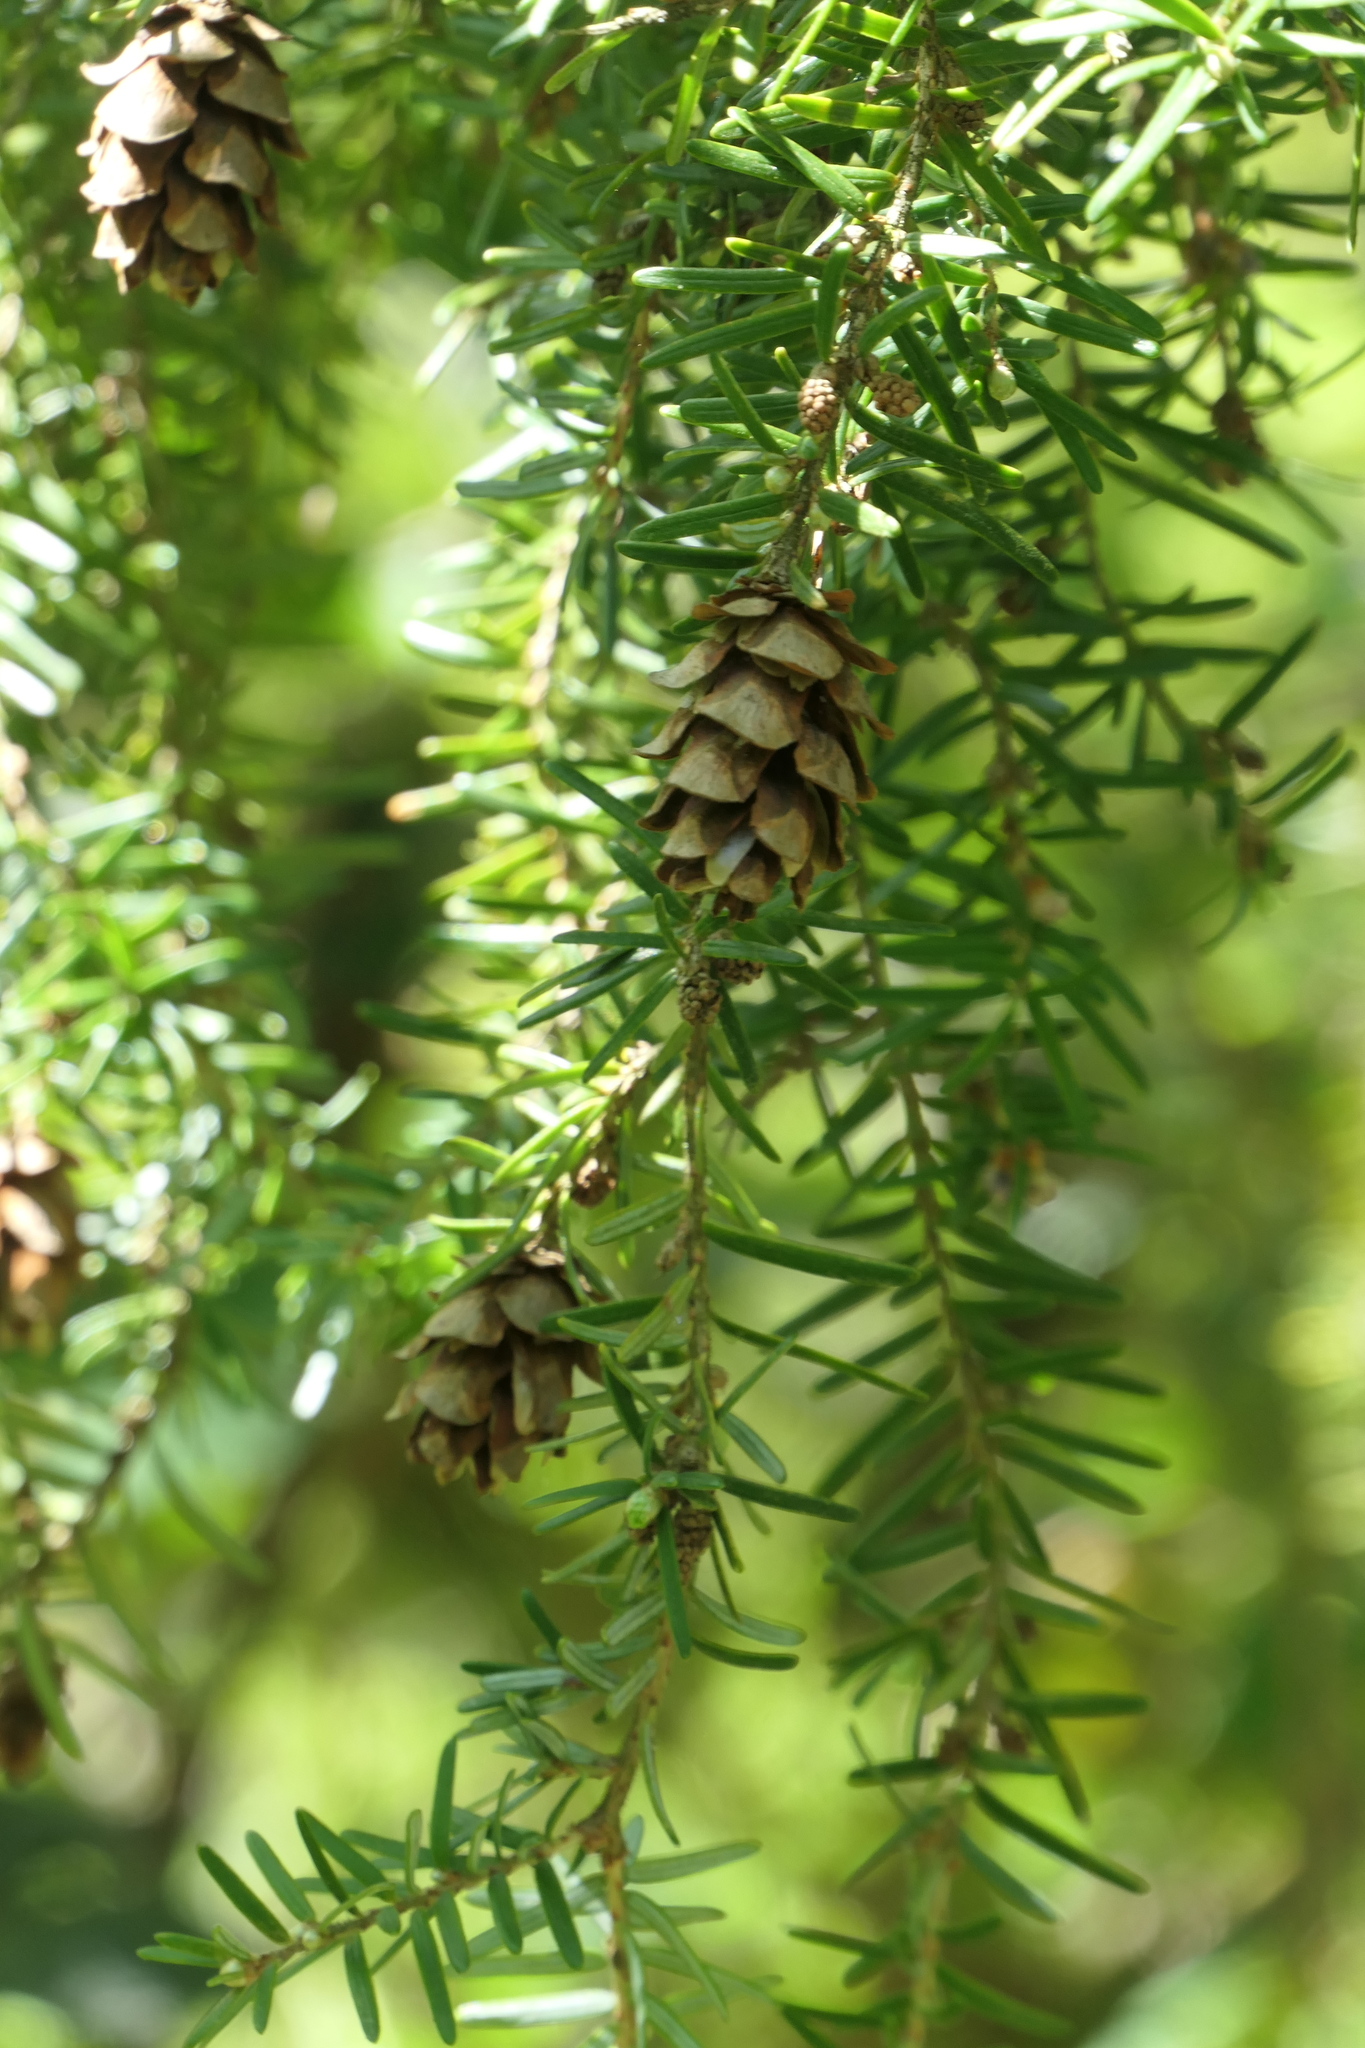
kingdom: Plantae
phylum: Tracheophyta
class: Pinopsida
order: Pinales
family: Pinaceae
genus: Tsuga
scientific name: Tsuga heterophylla
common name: Western hemlock
